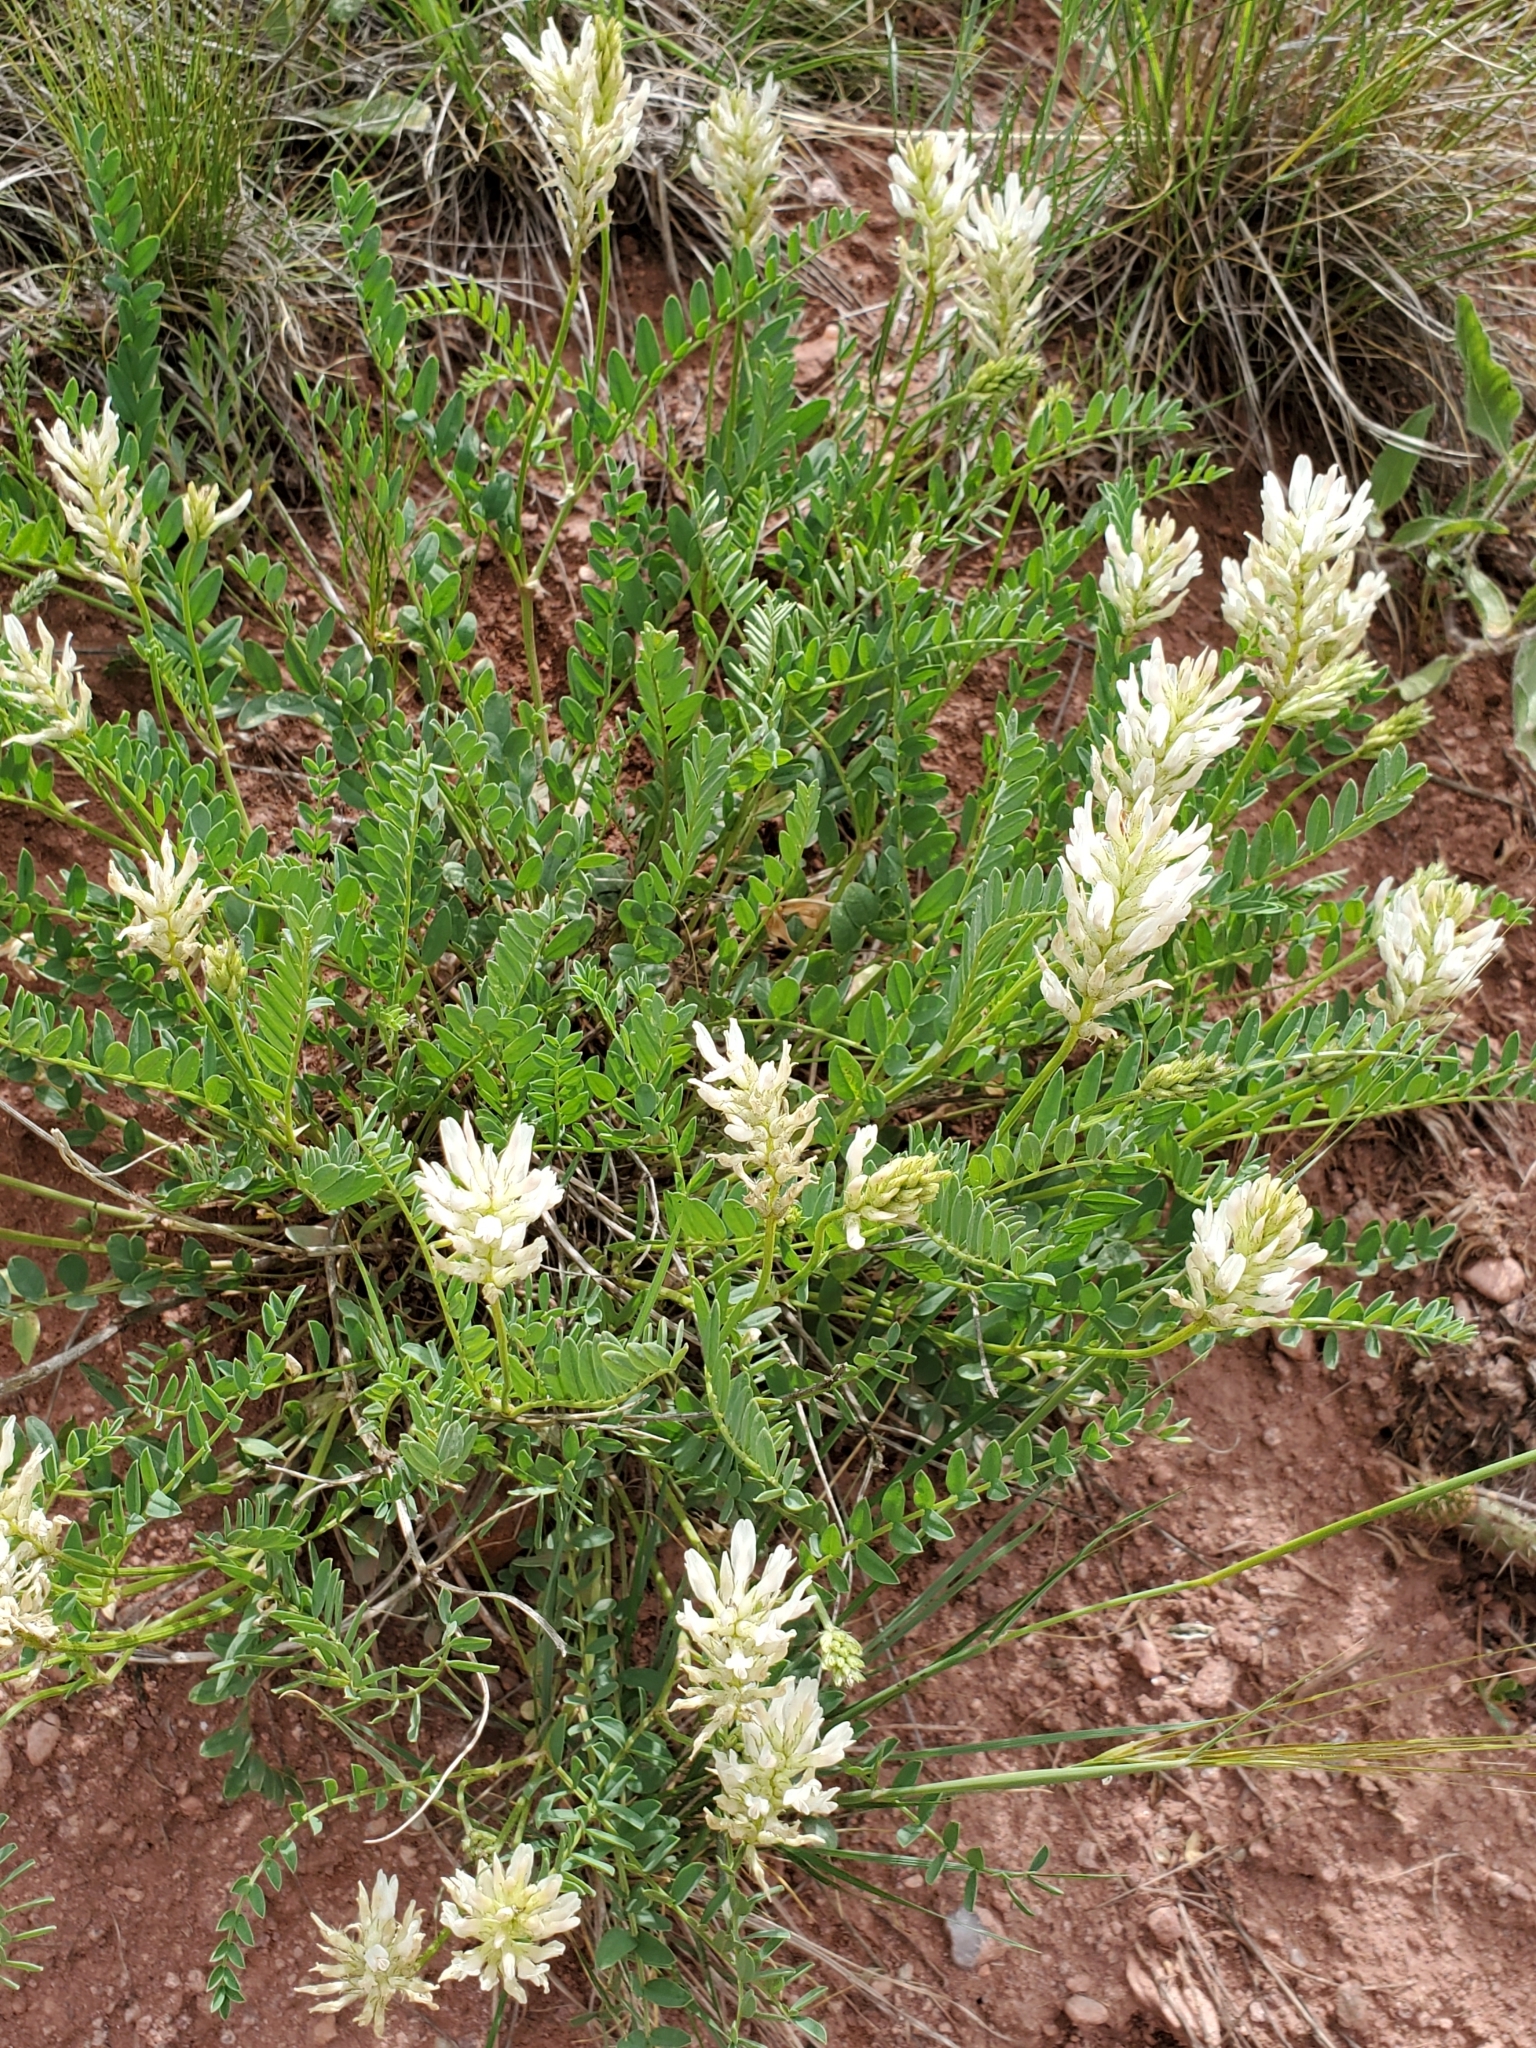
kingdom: Plantae
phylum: Tracheophyta
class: Magnoliopsida
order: Fabales
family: Fabaceae
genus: Astragalus
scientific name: Astragalus laxmannii
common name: Laxmann's milk-vetch
